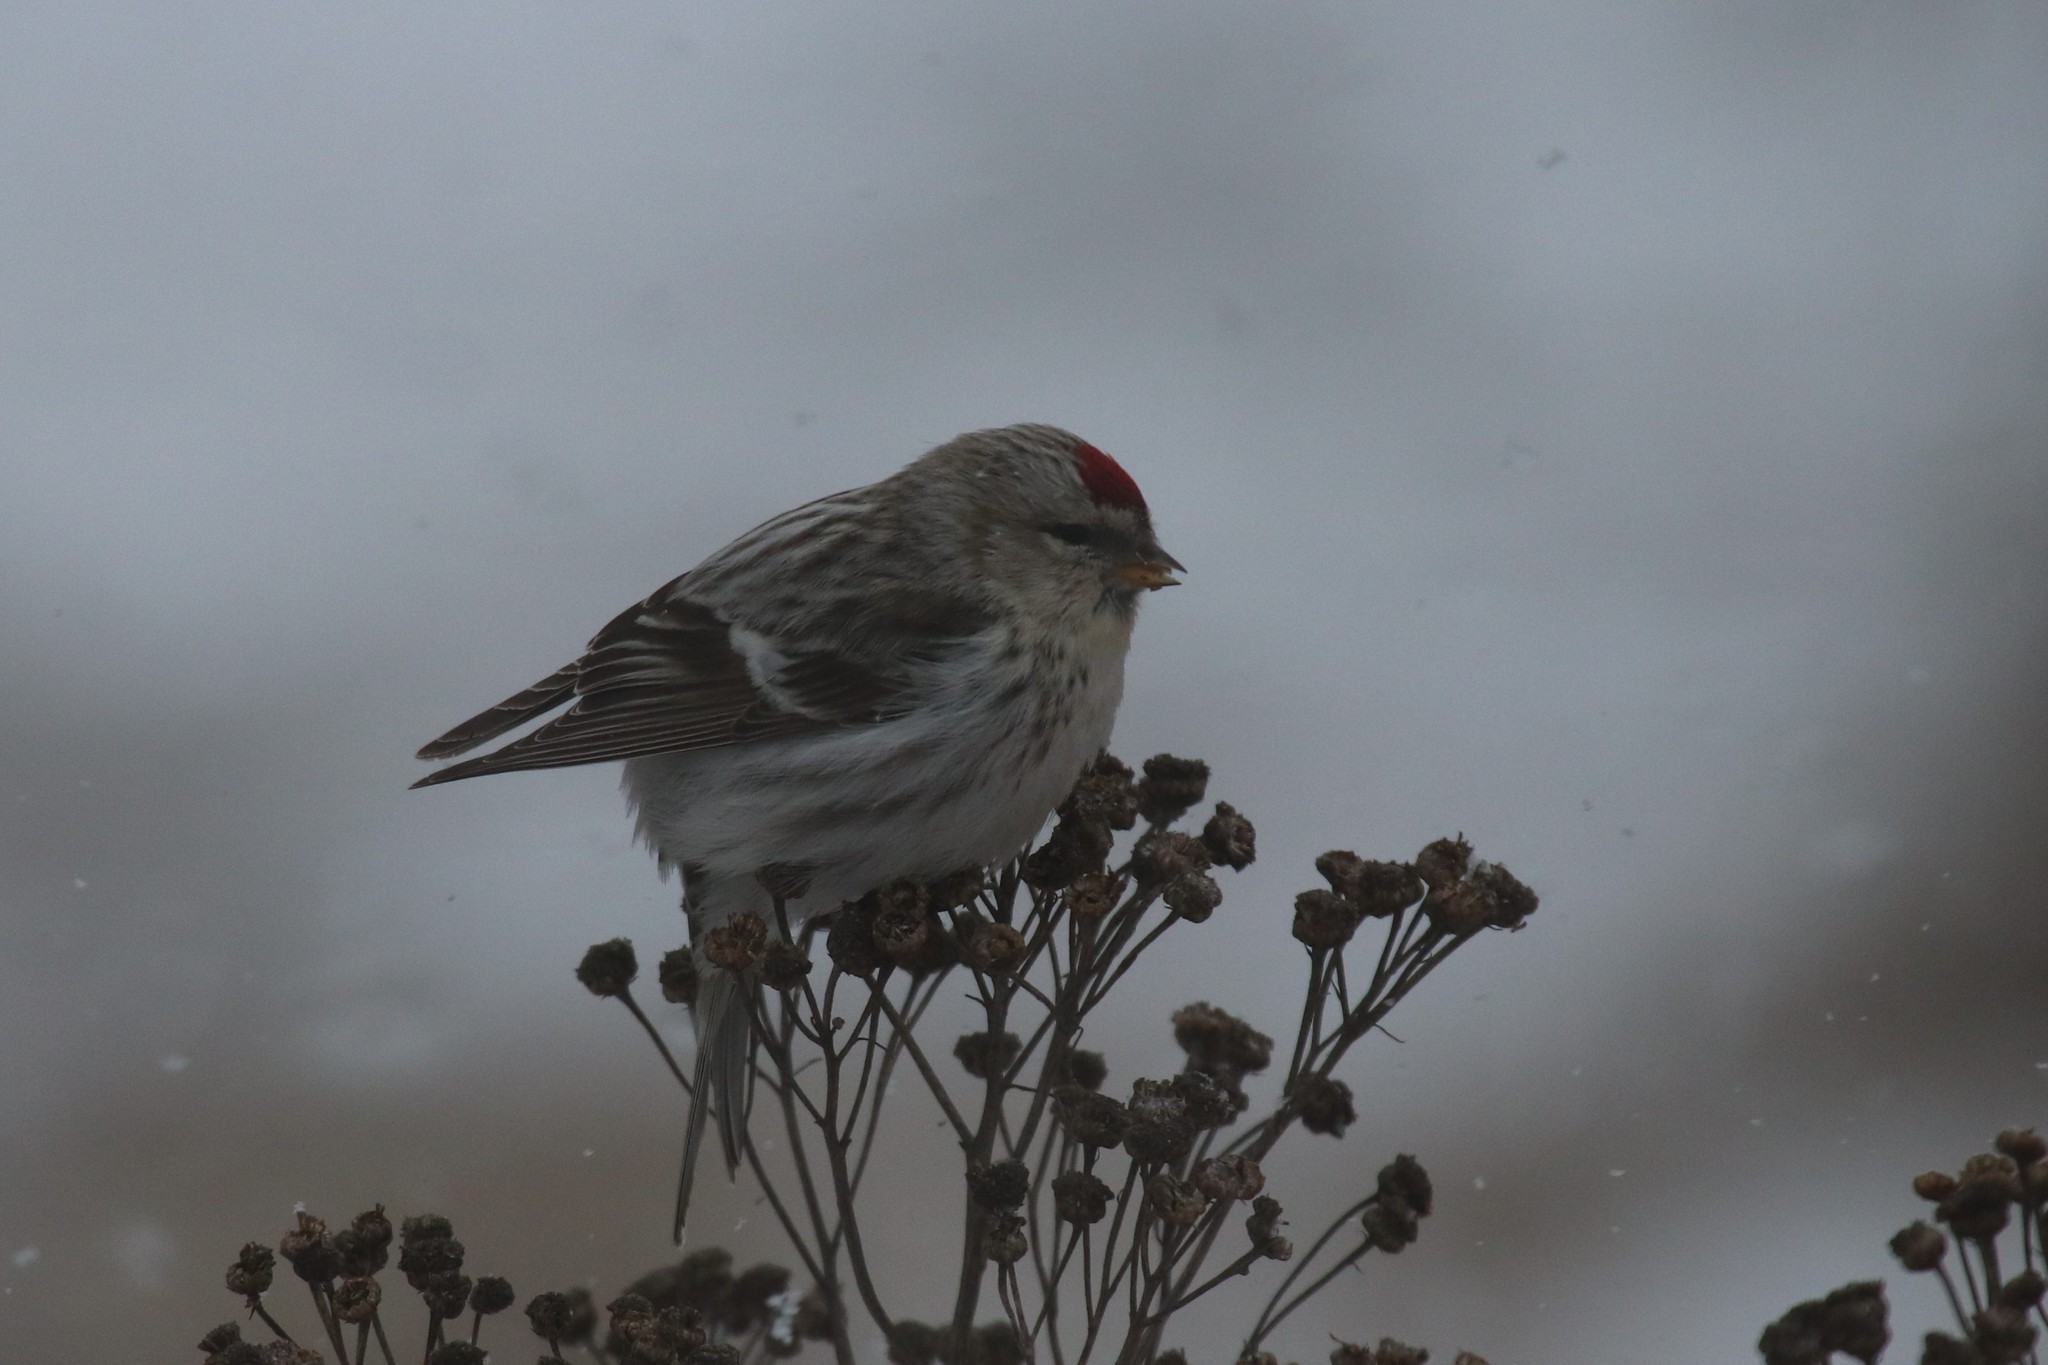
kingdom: Animalia
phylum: Chordata
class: Aves
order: Passeriformes
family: Fringillidae
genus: Acanthis
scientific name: Acanthis flammea
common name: Common redpoll
